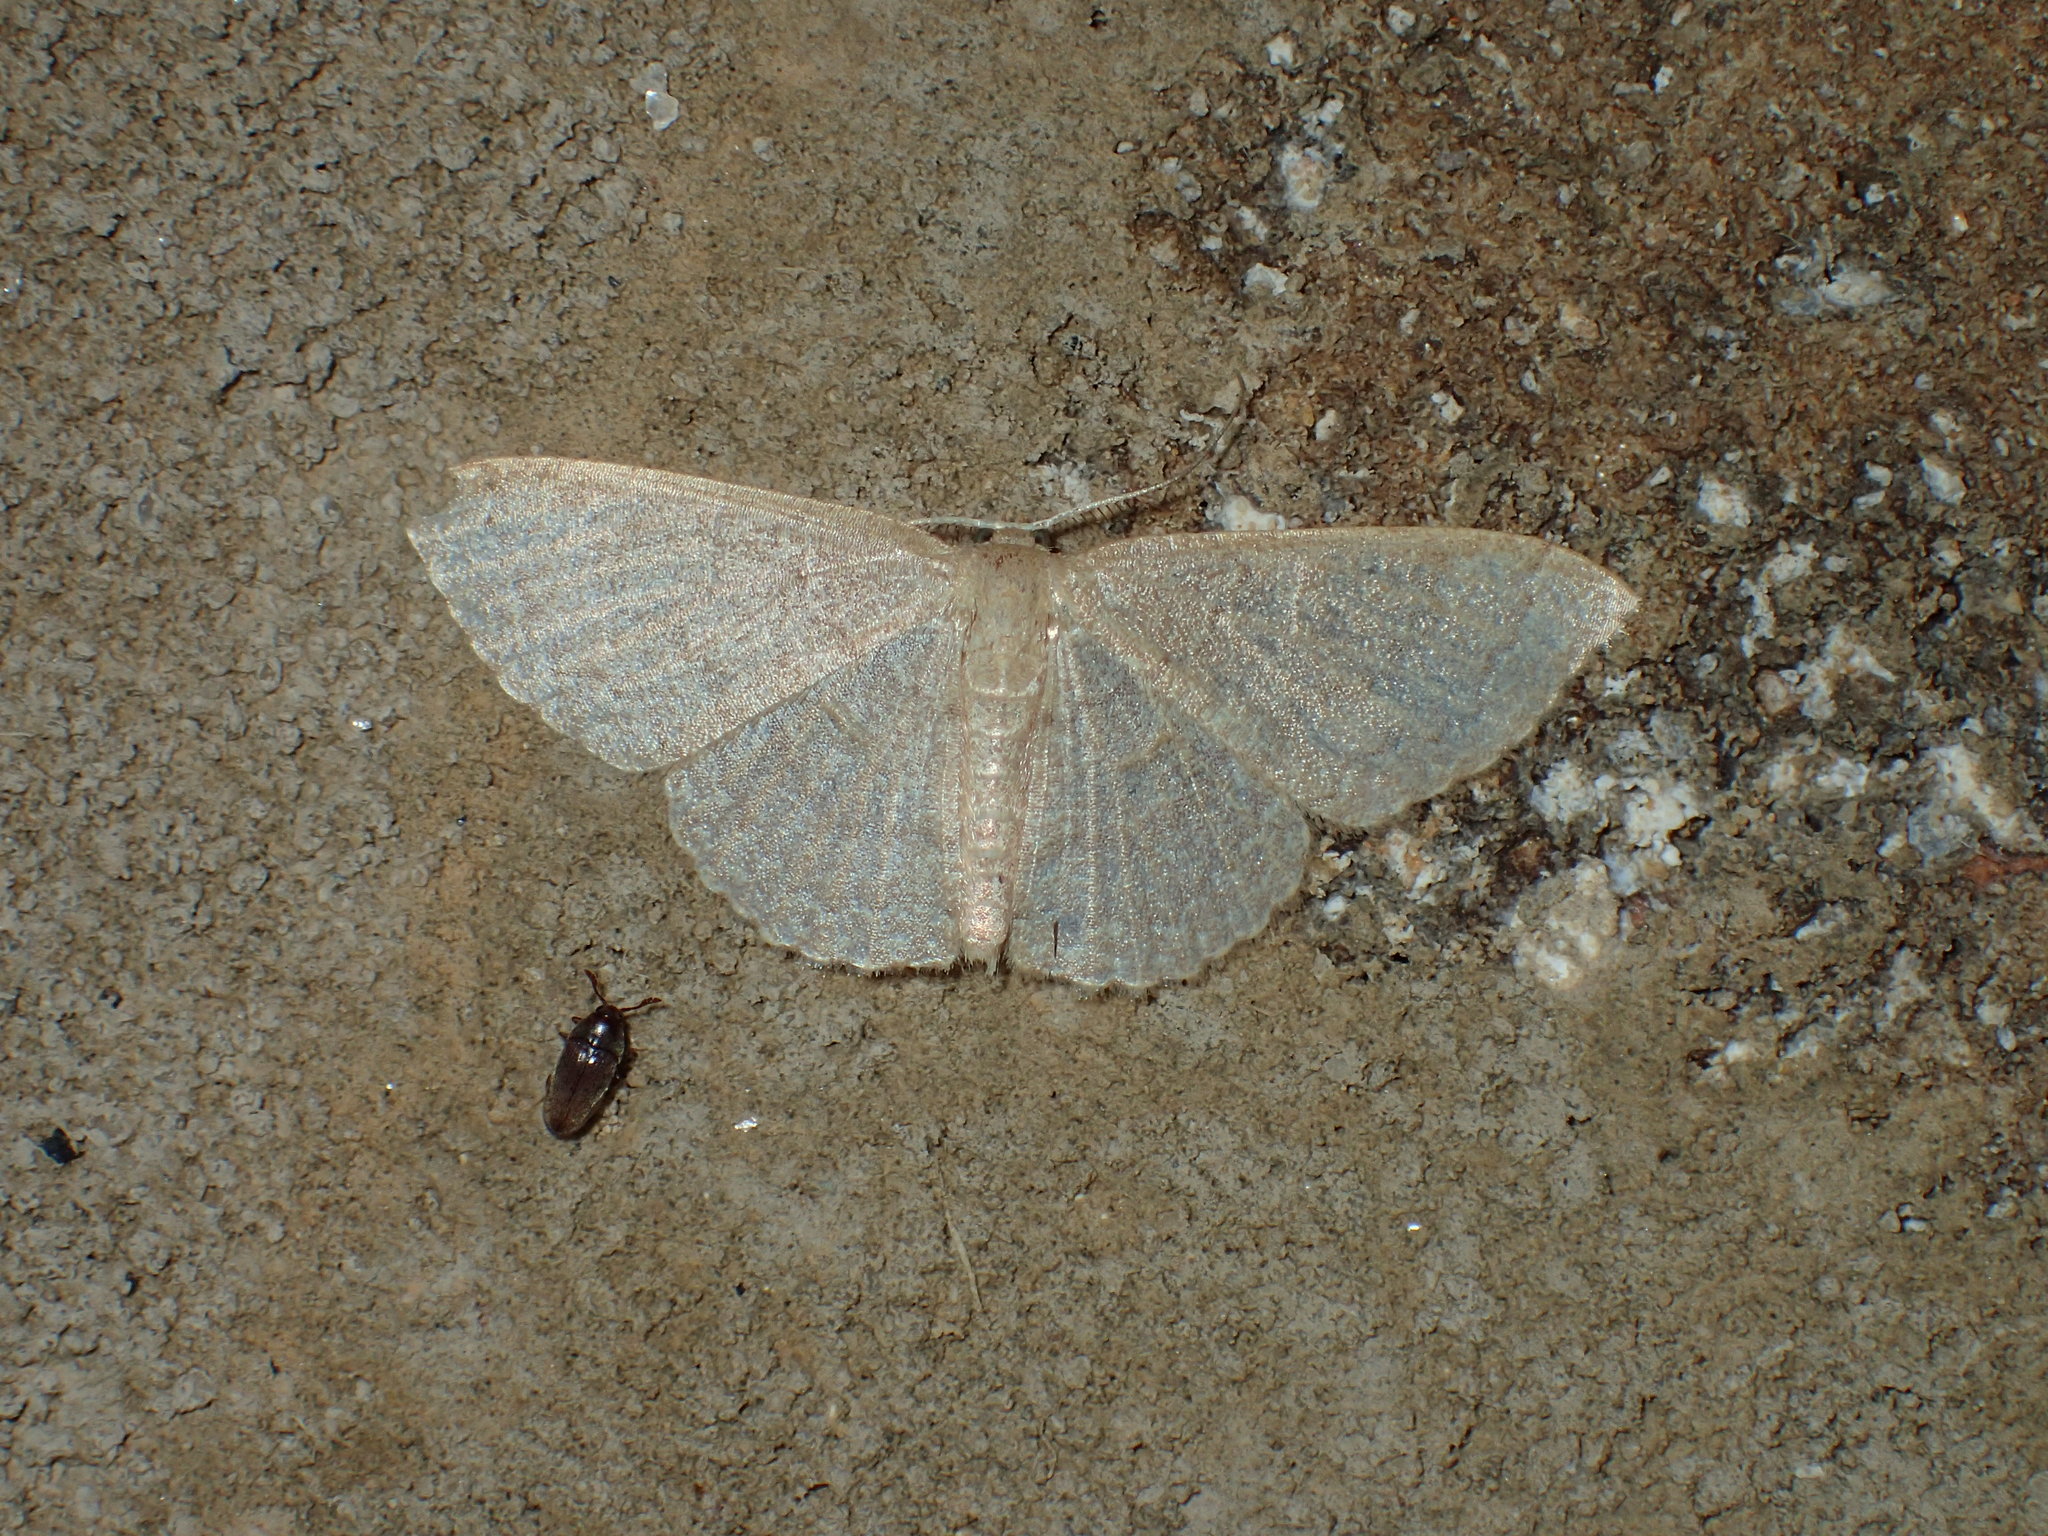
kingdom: Animalia
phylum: Arthropoda
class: Insecta
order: Lepidoptera
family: Geometridae
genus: Pleuroprucha
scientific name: Pleuroprucha insulsaria
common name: Common tan wave
